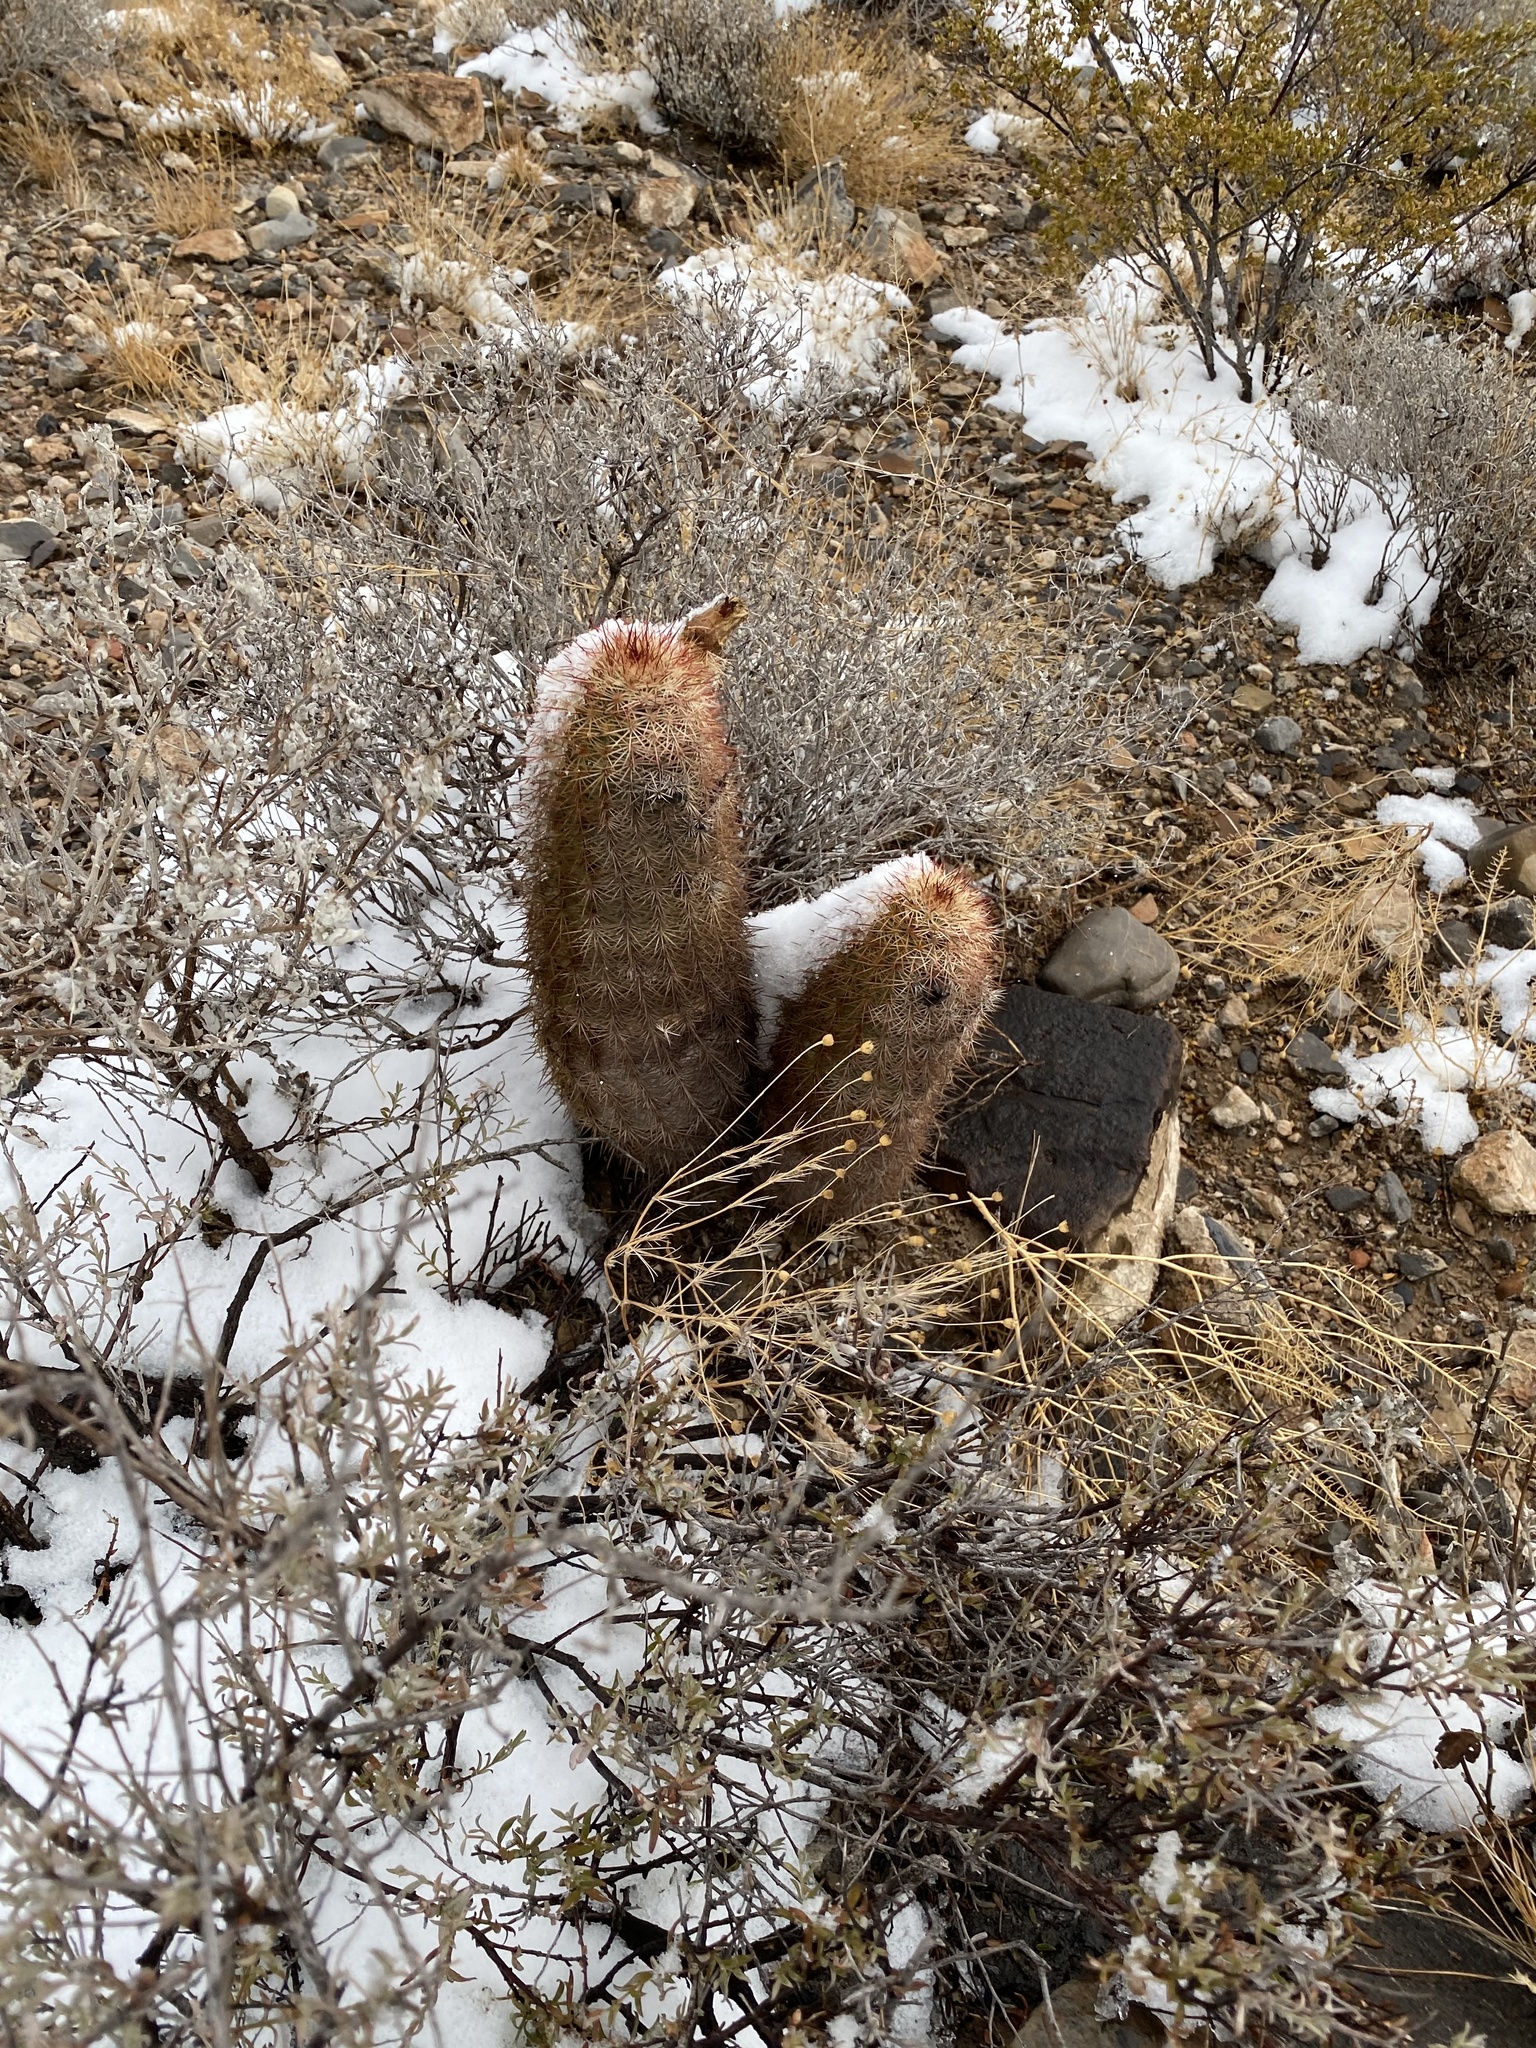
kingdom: Plantae
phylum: Tracheophyta
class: Magnoliopsida
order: Caryophyllales
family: Cactaceae
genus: Echinocereus
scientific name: Echinocereus dasyacanthus
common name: Spiny hedgehog cactus
